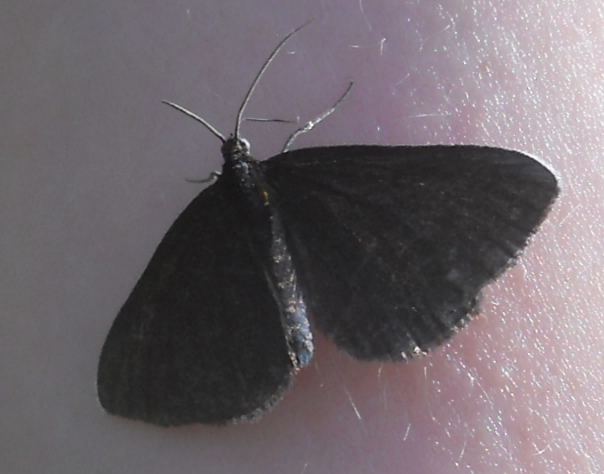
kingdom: Animalia
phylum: Arthropoda
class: Insecta
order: Lepidoptera
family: Geometridae
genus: Odezia
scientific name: Odezia atrata
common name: Chimney sweeper
